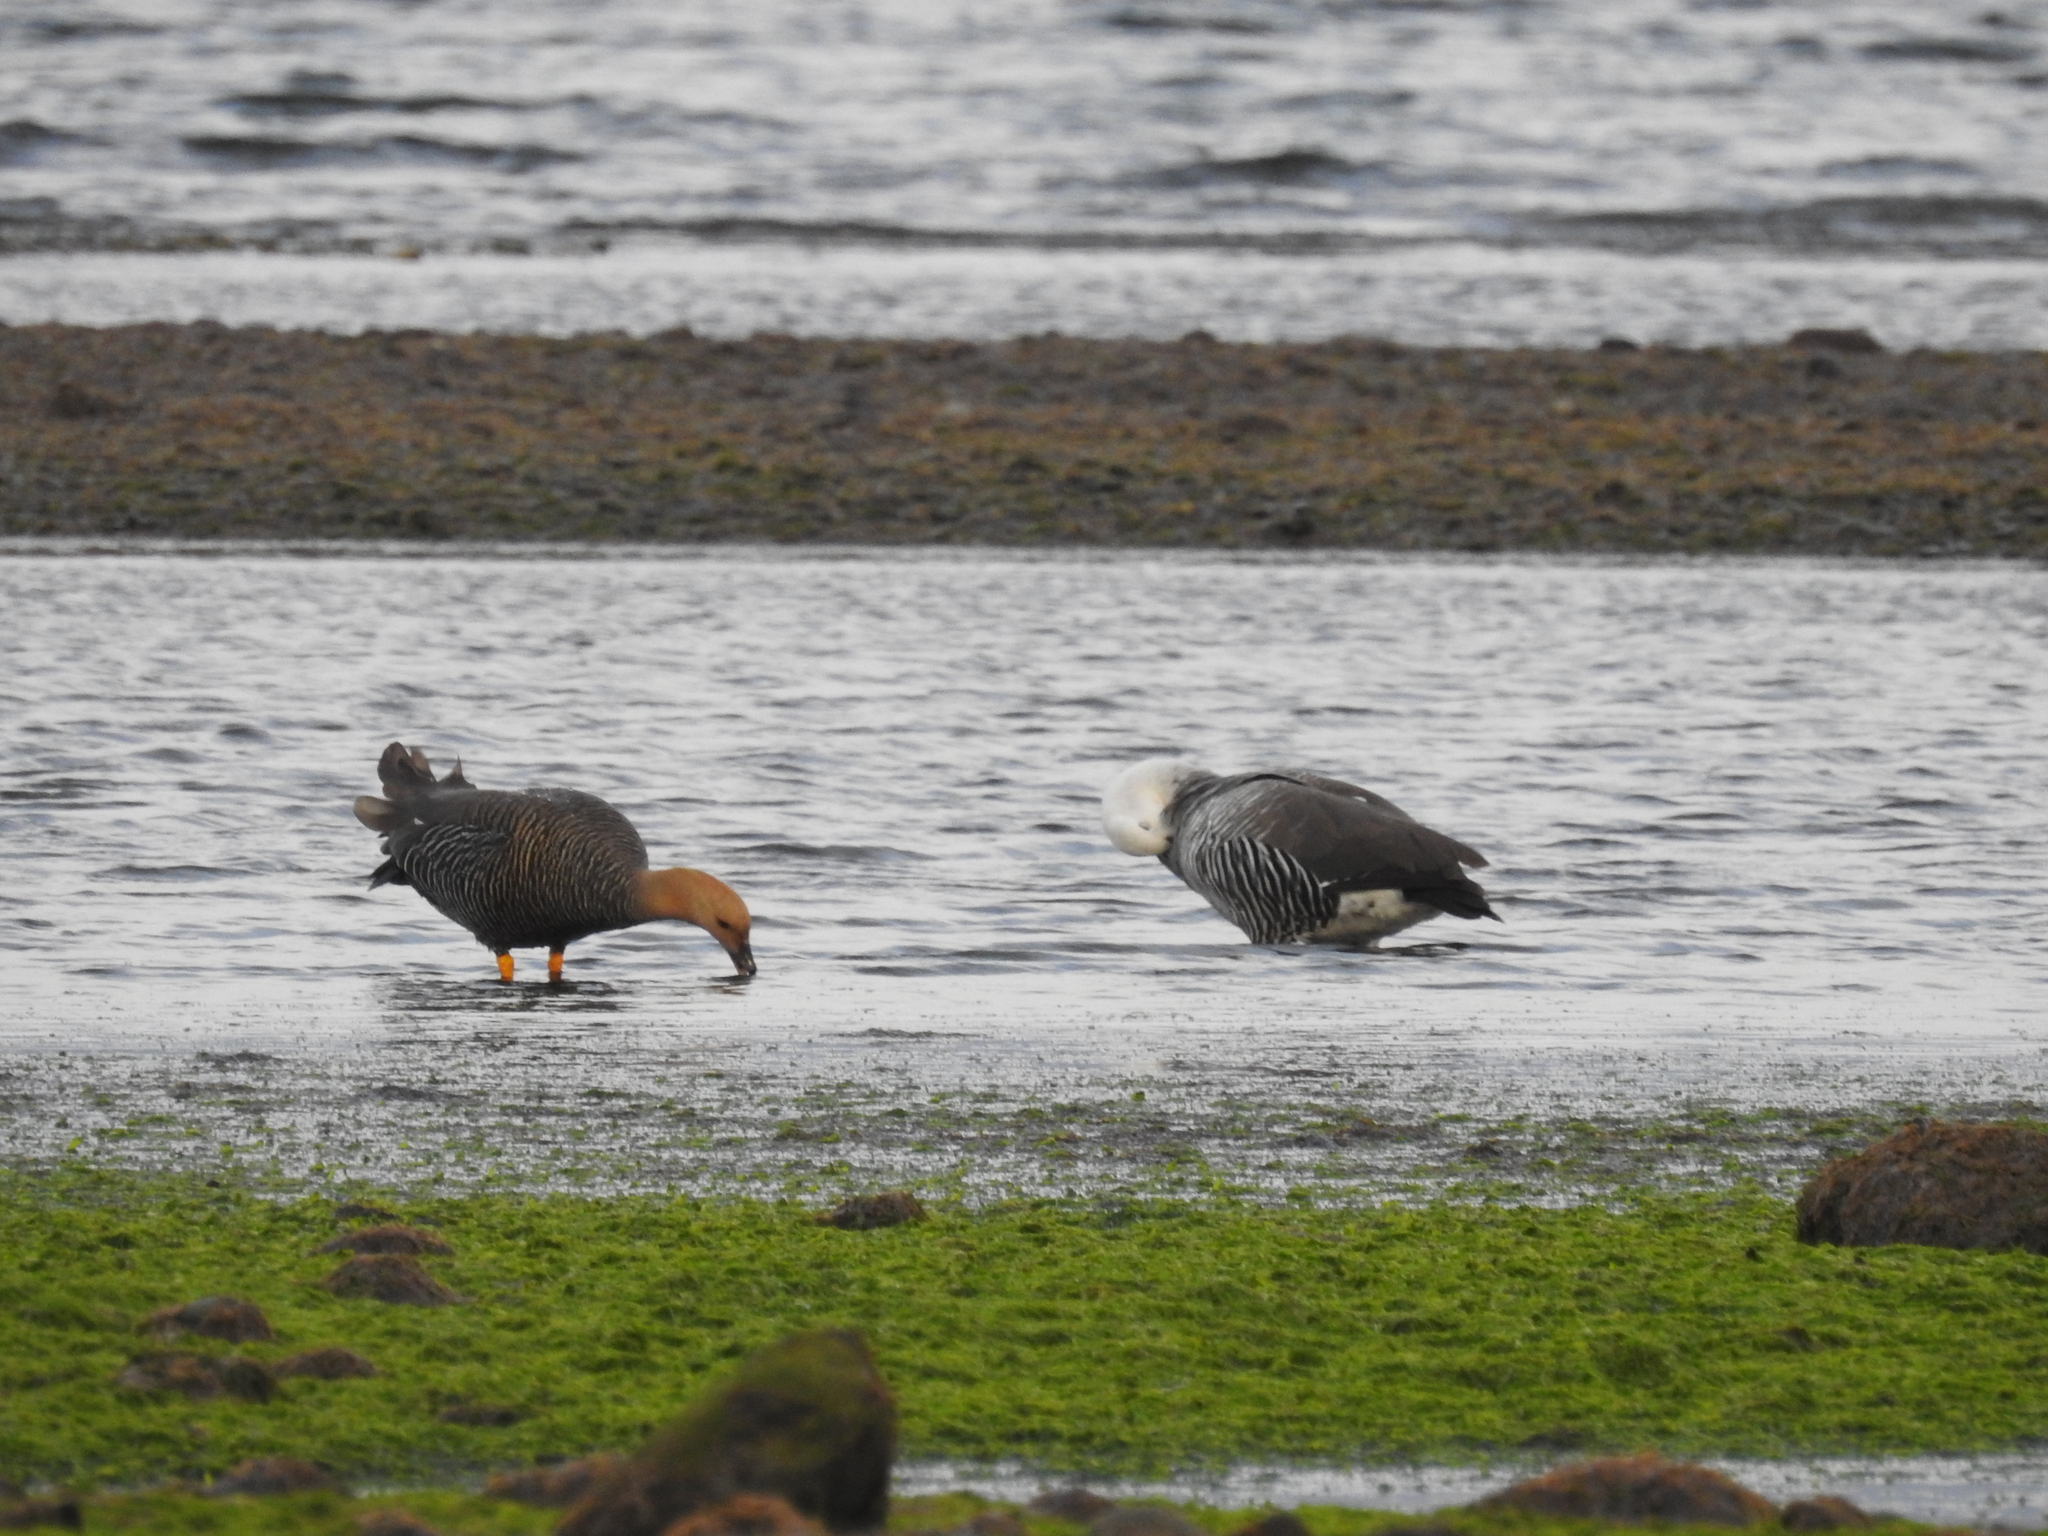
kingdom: Animalia
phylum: Chordata
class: Aves
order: Anseriformes
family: Anatidae
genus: Chloephaga
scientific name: Chloephaga picta
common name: Upland goose
